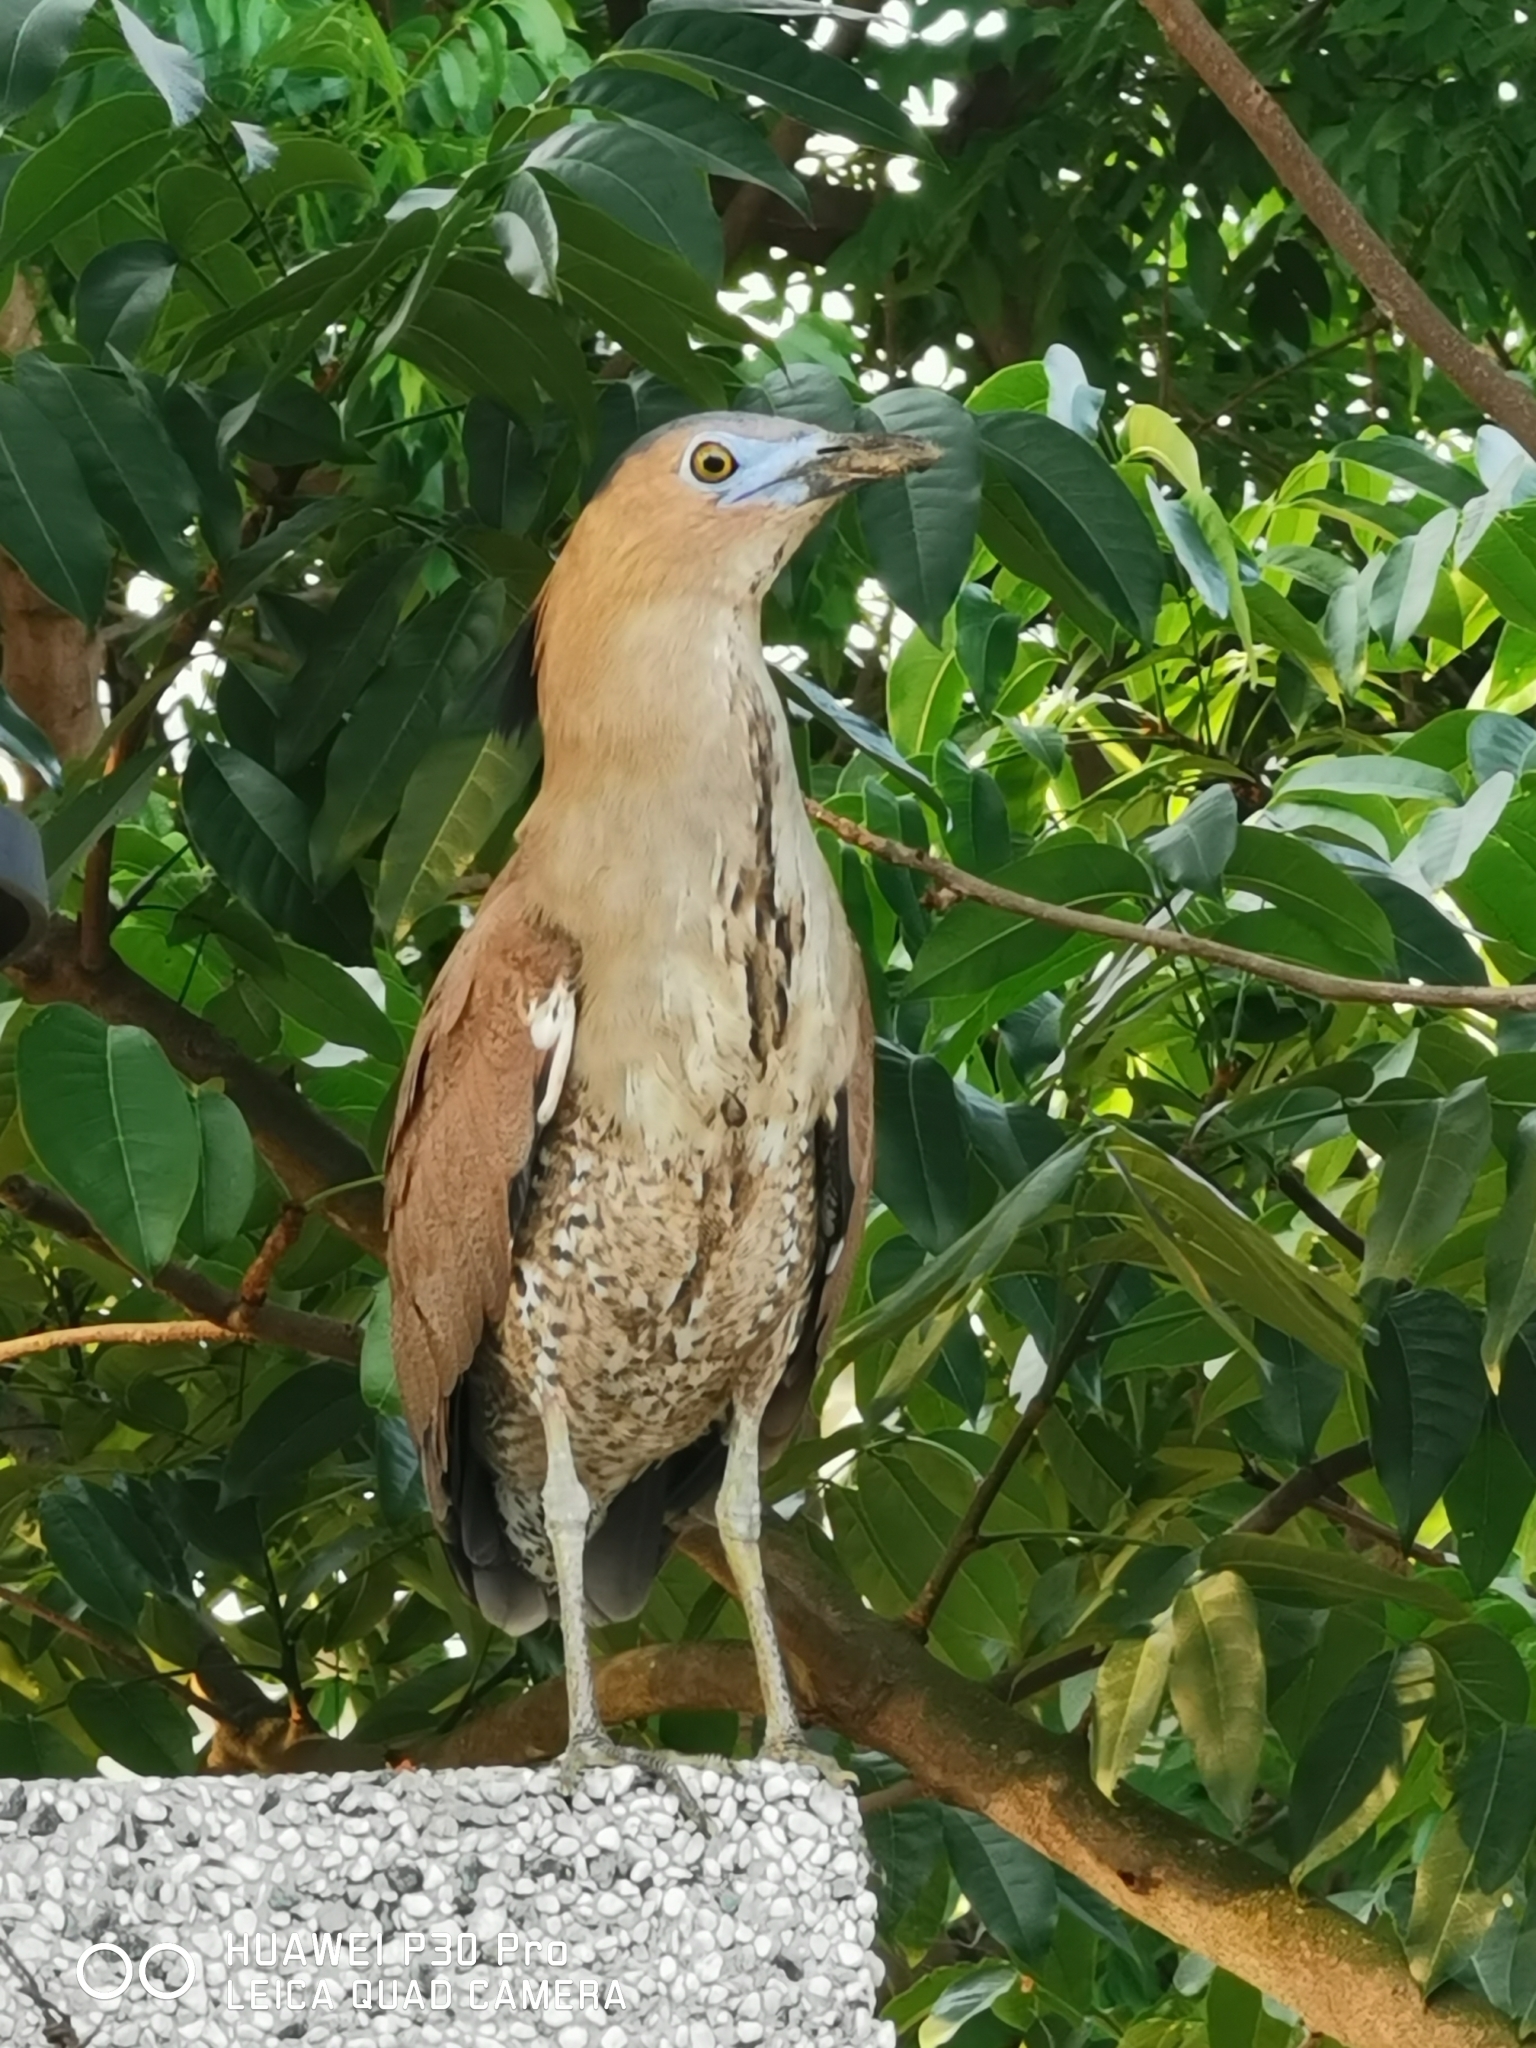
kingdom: Animalia
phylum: Chordata
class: Aves
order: Pelecaniformes
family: Ardeidae
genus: Gorsachius
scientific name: Gorsachius melanolophus
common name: Malayan night heron
